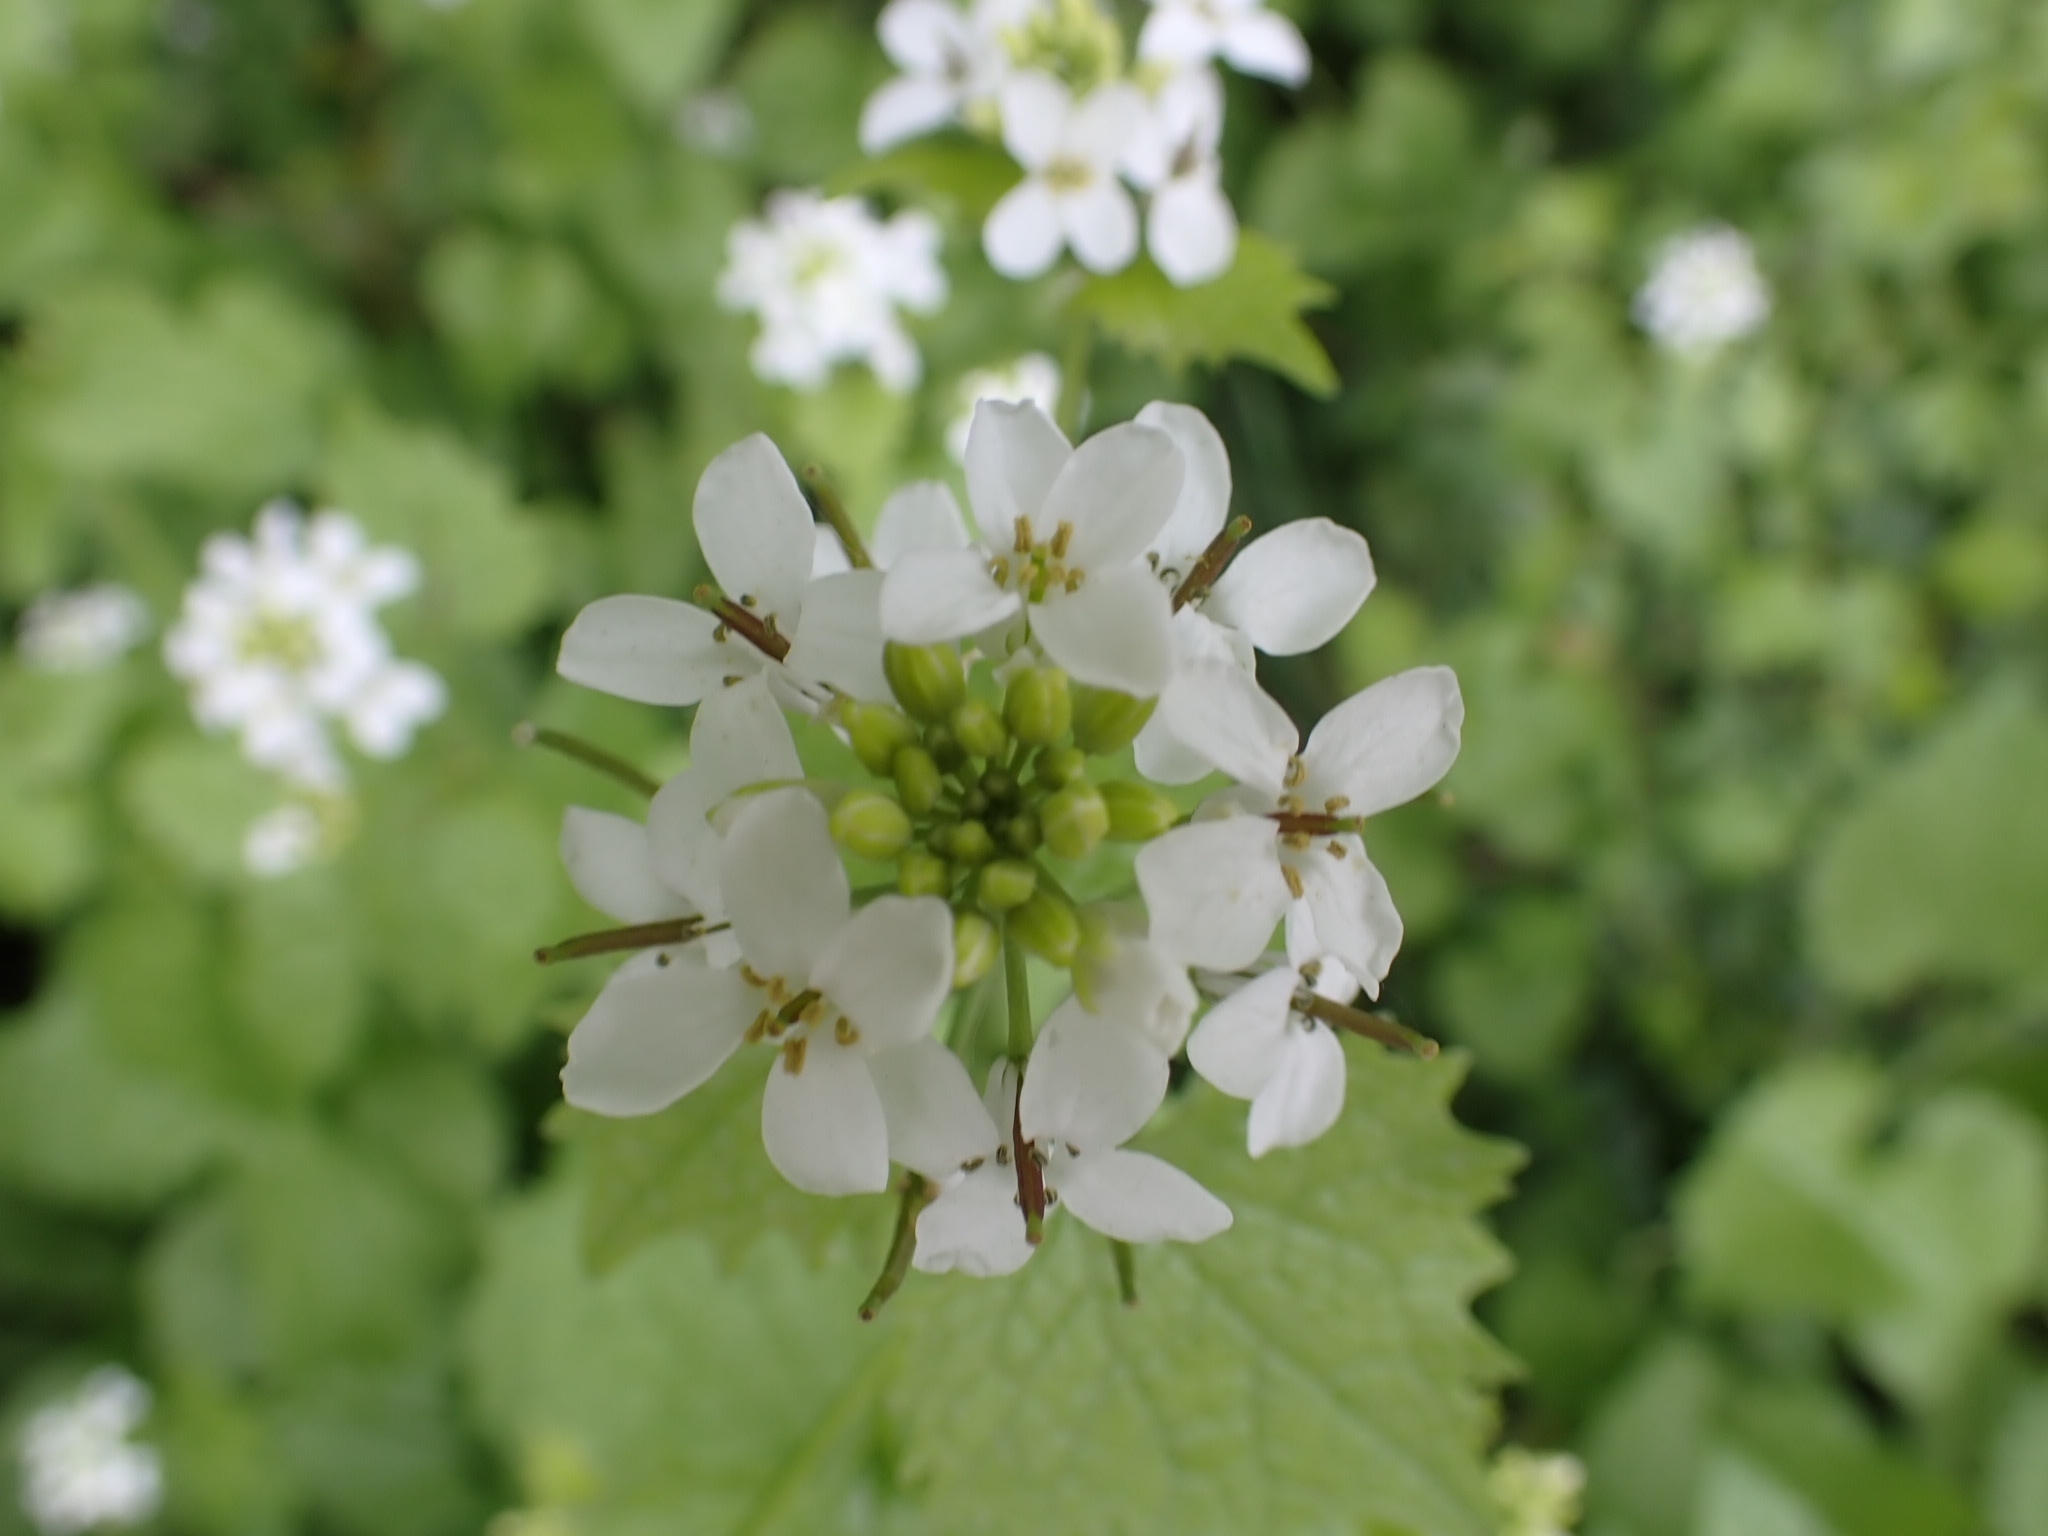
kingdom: Plantae
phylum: Tracheophyta
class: Magnoliopsida
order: Brassicales
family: Brassicaceae
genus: Alliaria
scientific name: Alliaria petiolata
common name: Garlic mustard
